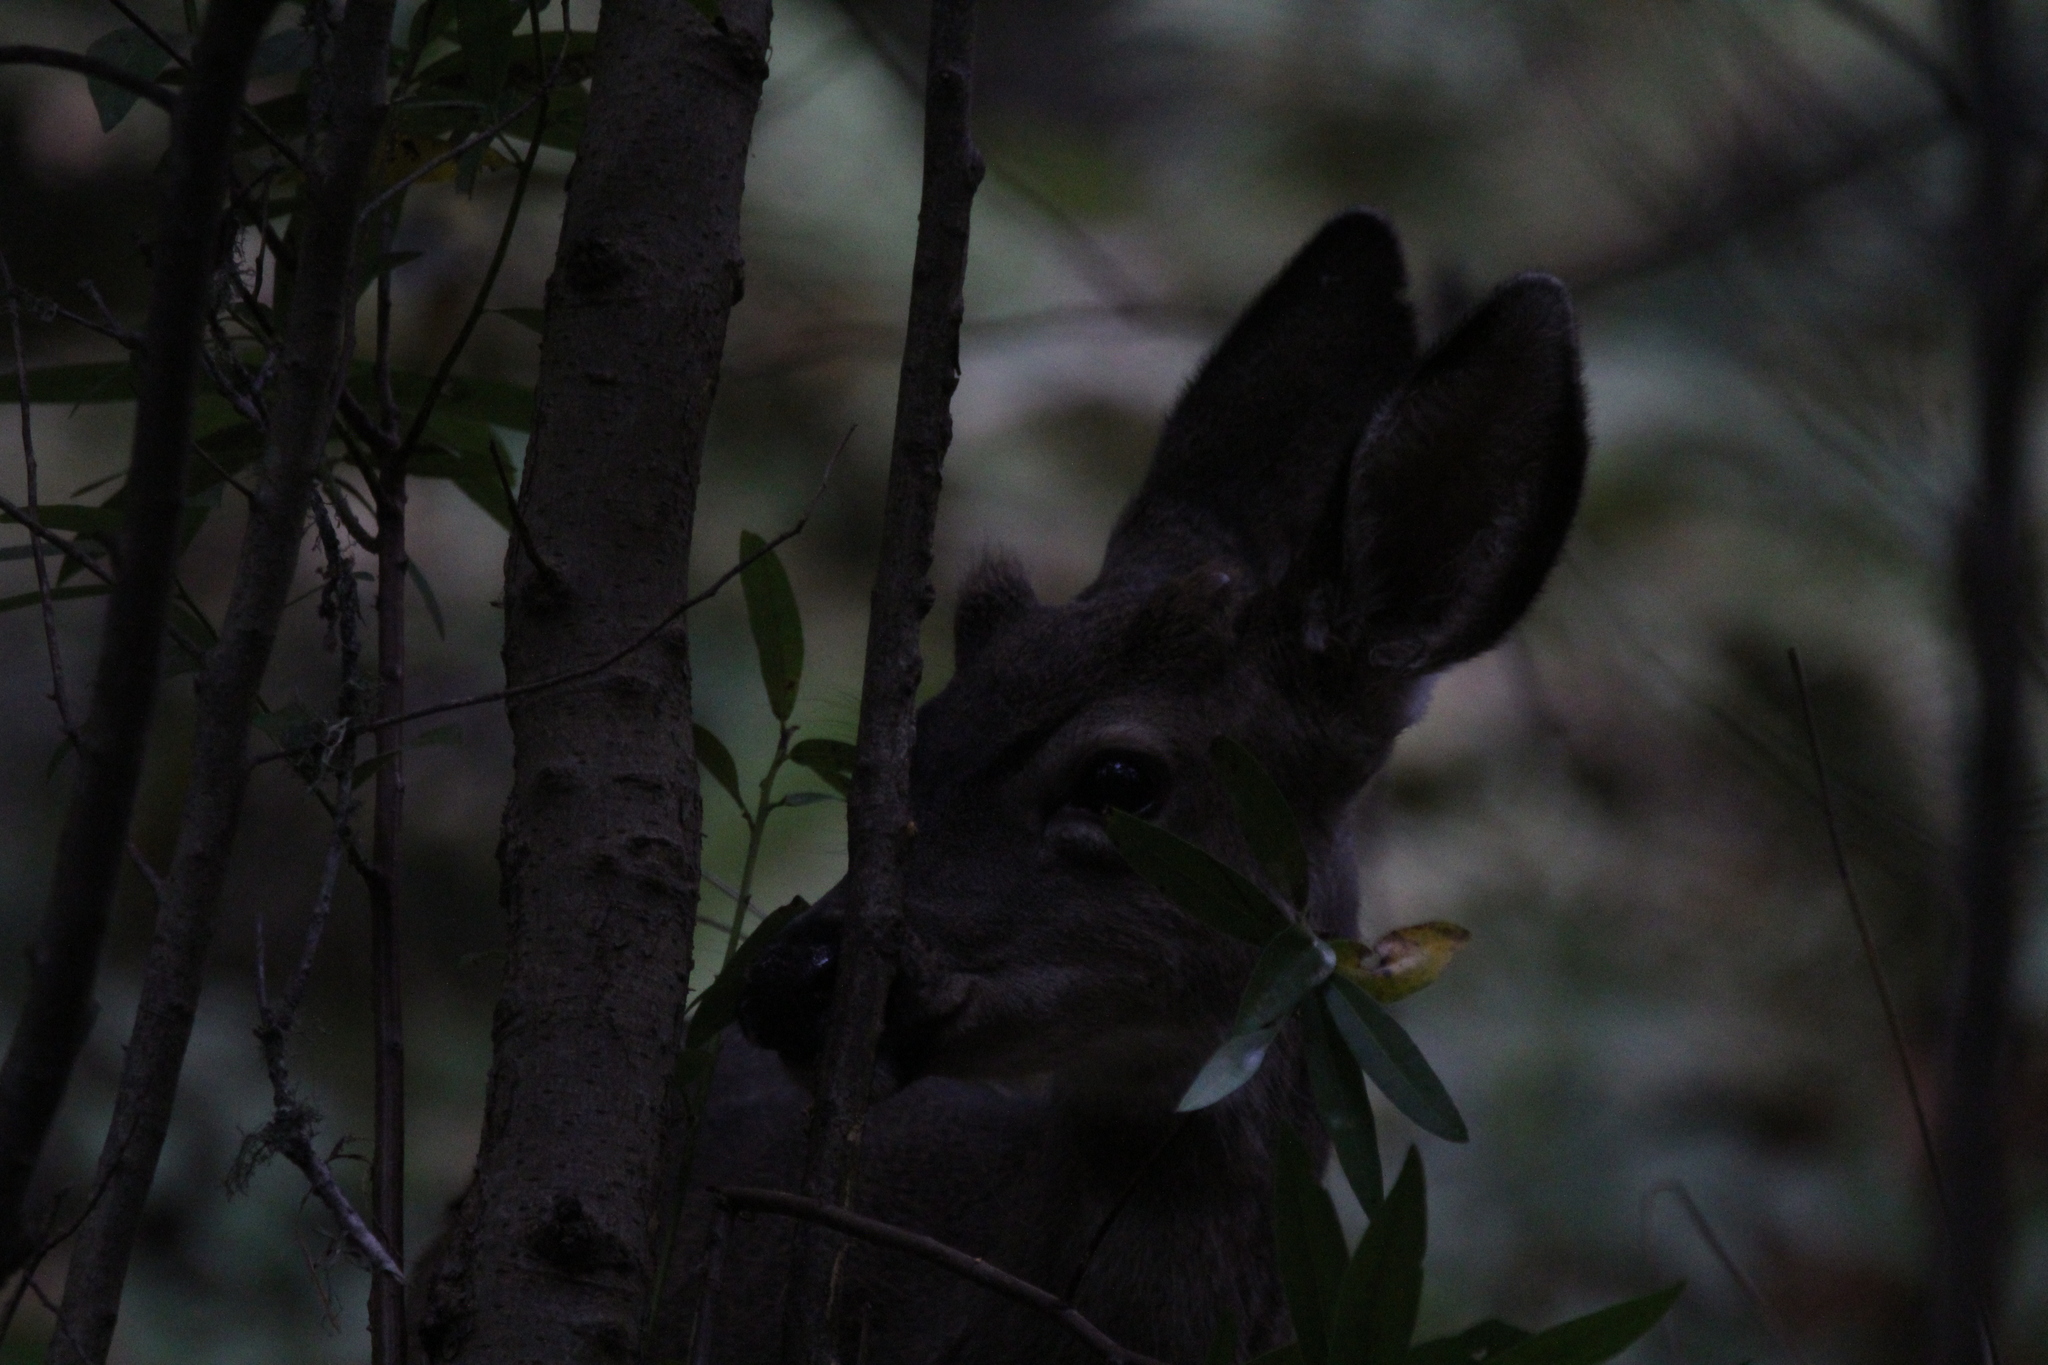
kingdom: Animalia
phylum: Chordata
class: Mammalia
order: Artiodactyla
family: Cervidae
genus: Odocoileus
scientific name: Odocoileus hemionus
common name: Mule deer
